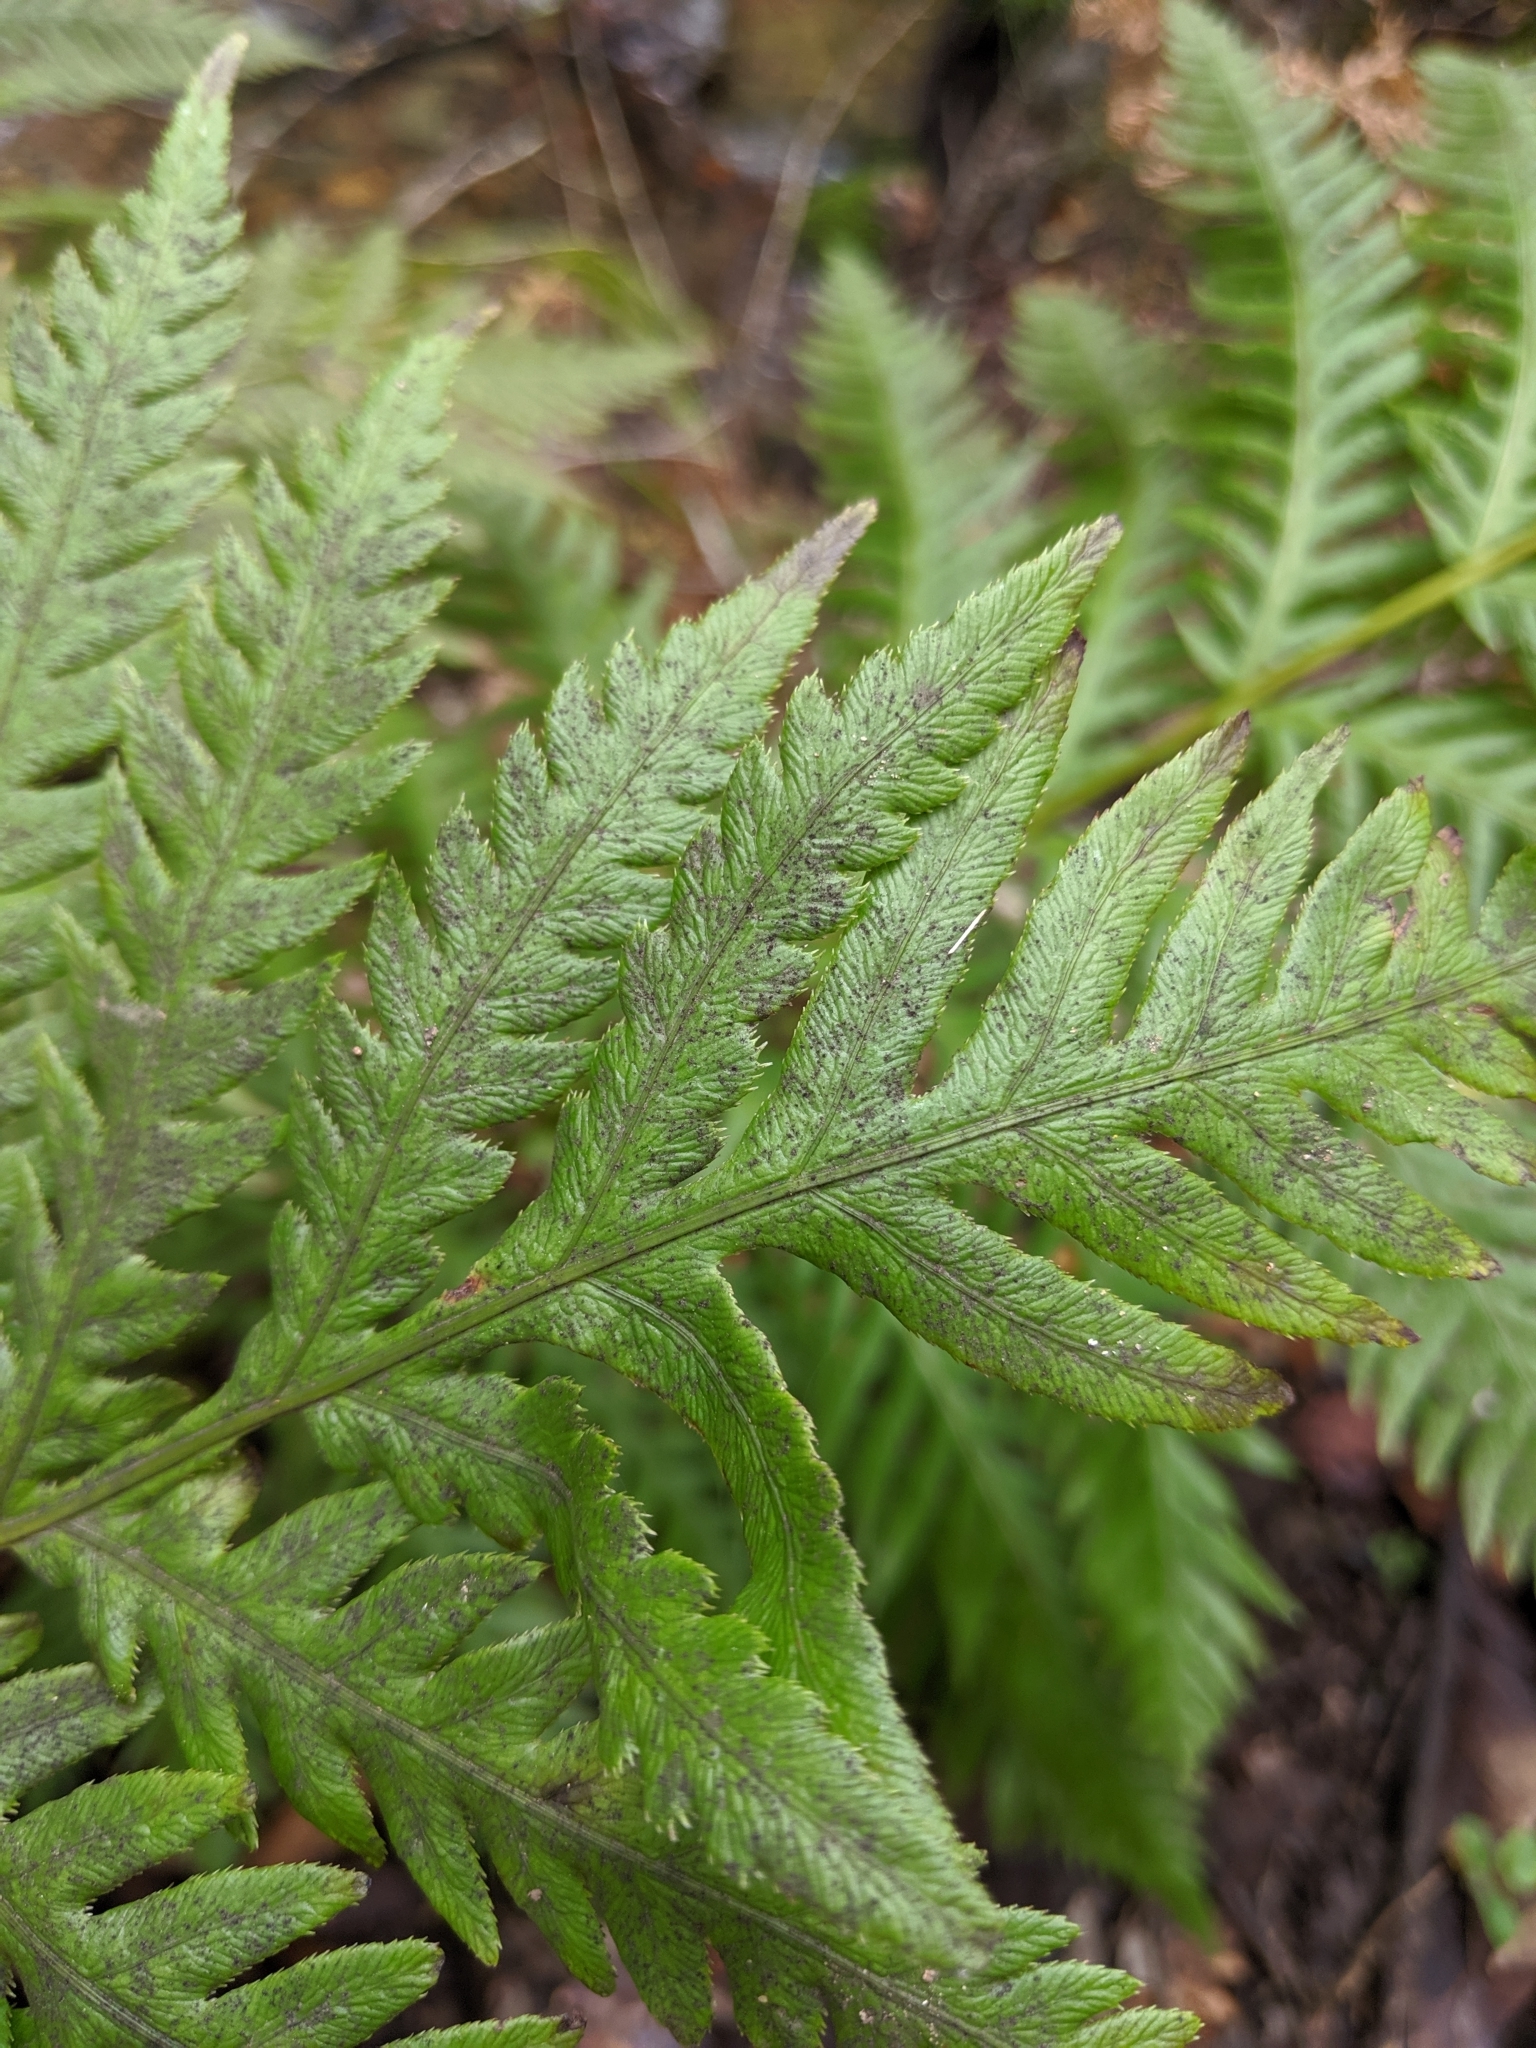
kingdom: Plantae
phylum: Tracheophyta
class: Polypodiopsida
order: Polypodiales
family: Blechnaceae
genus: Woodwardia
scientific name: Woodwardia fimbriata
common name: Giant chain fern
